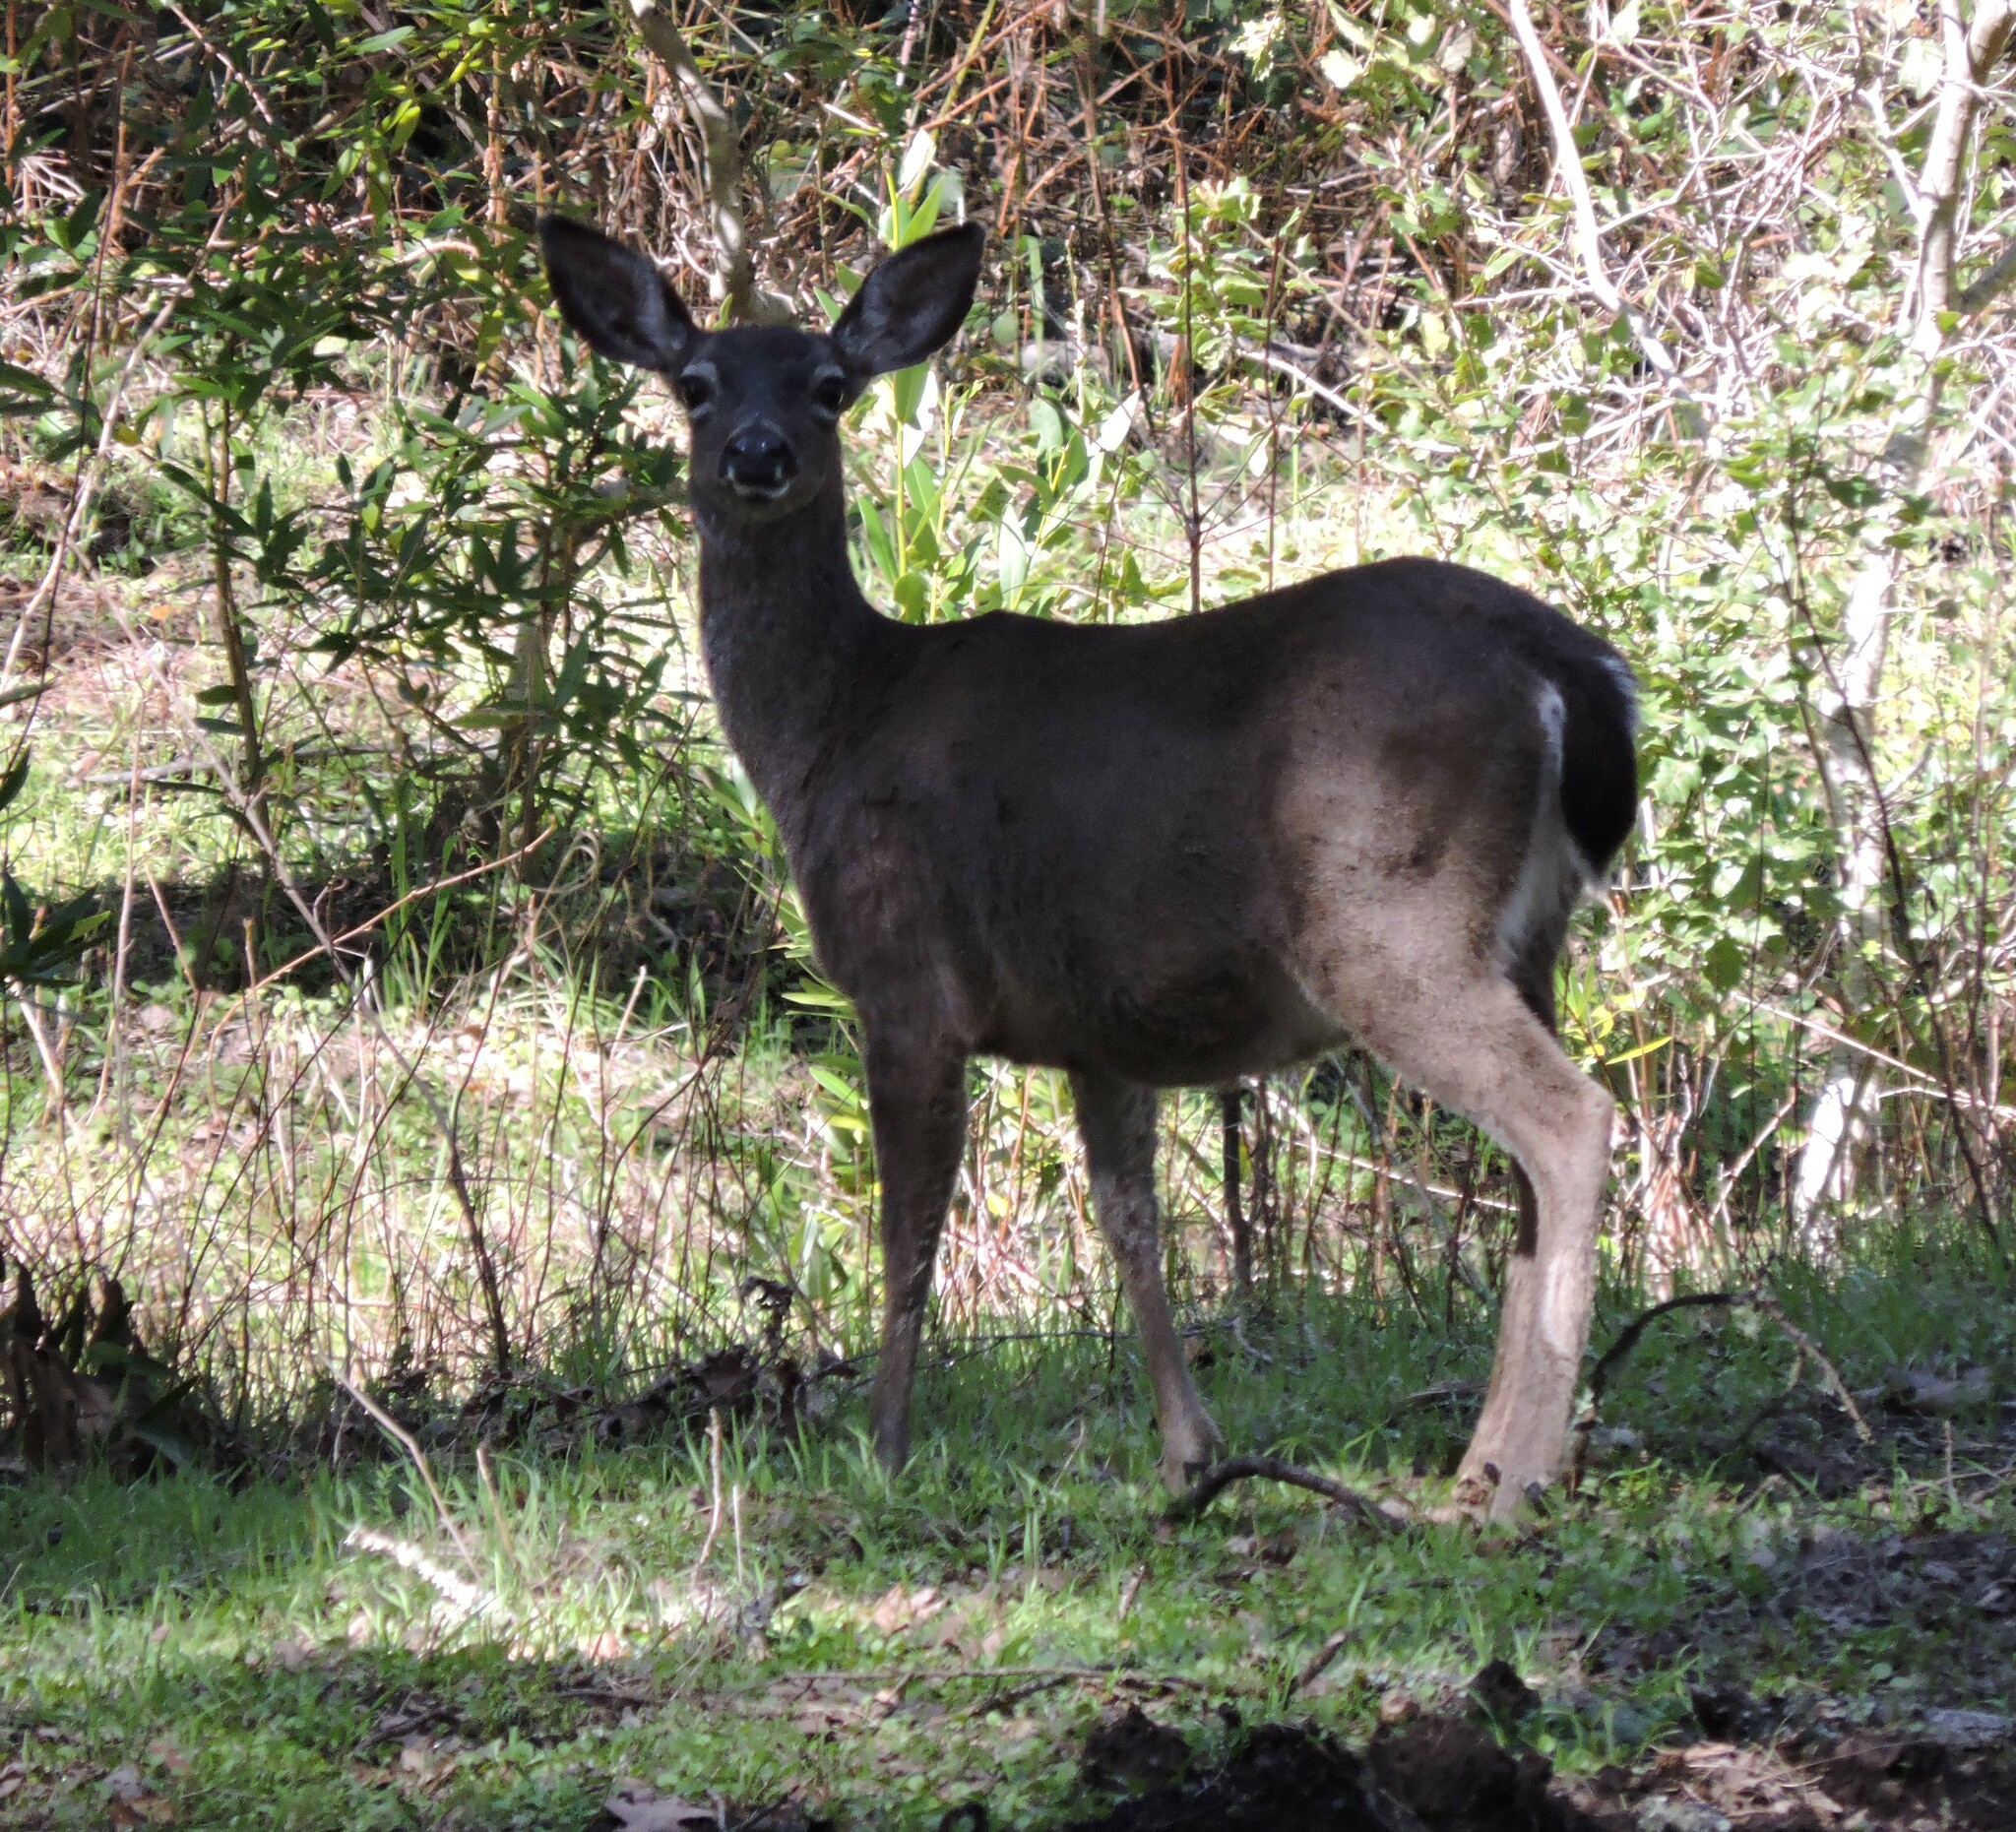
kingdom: Animalia
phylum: Chordata
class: Mammalia
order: Artiodactyla
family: Cervidae
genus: Odocoileus
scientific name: Odocoileus hemionus
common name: Mule deer
